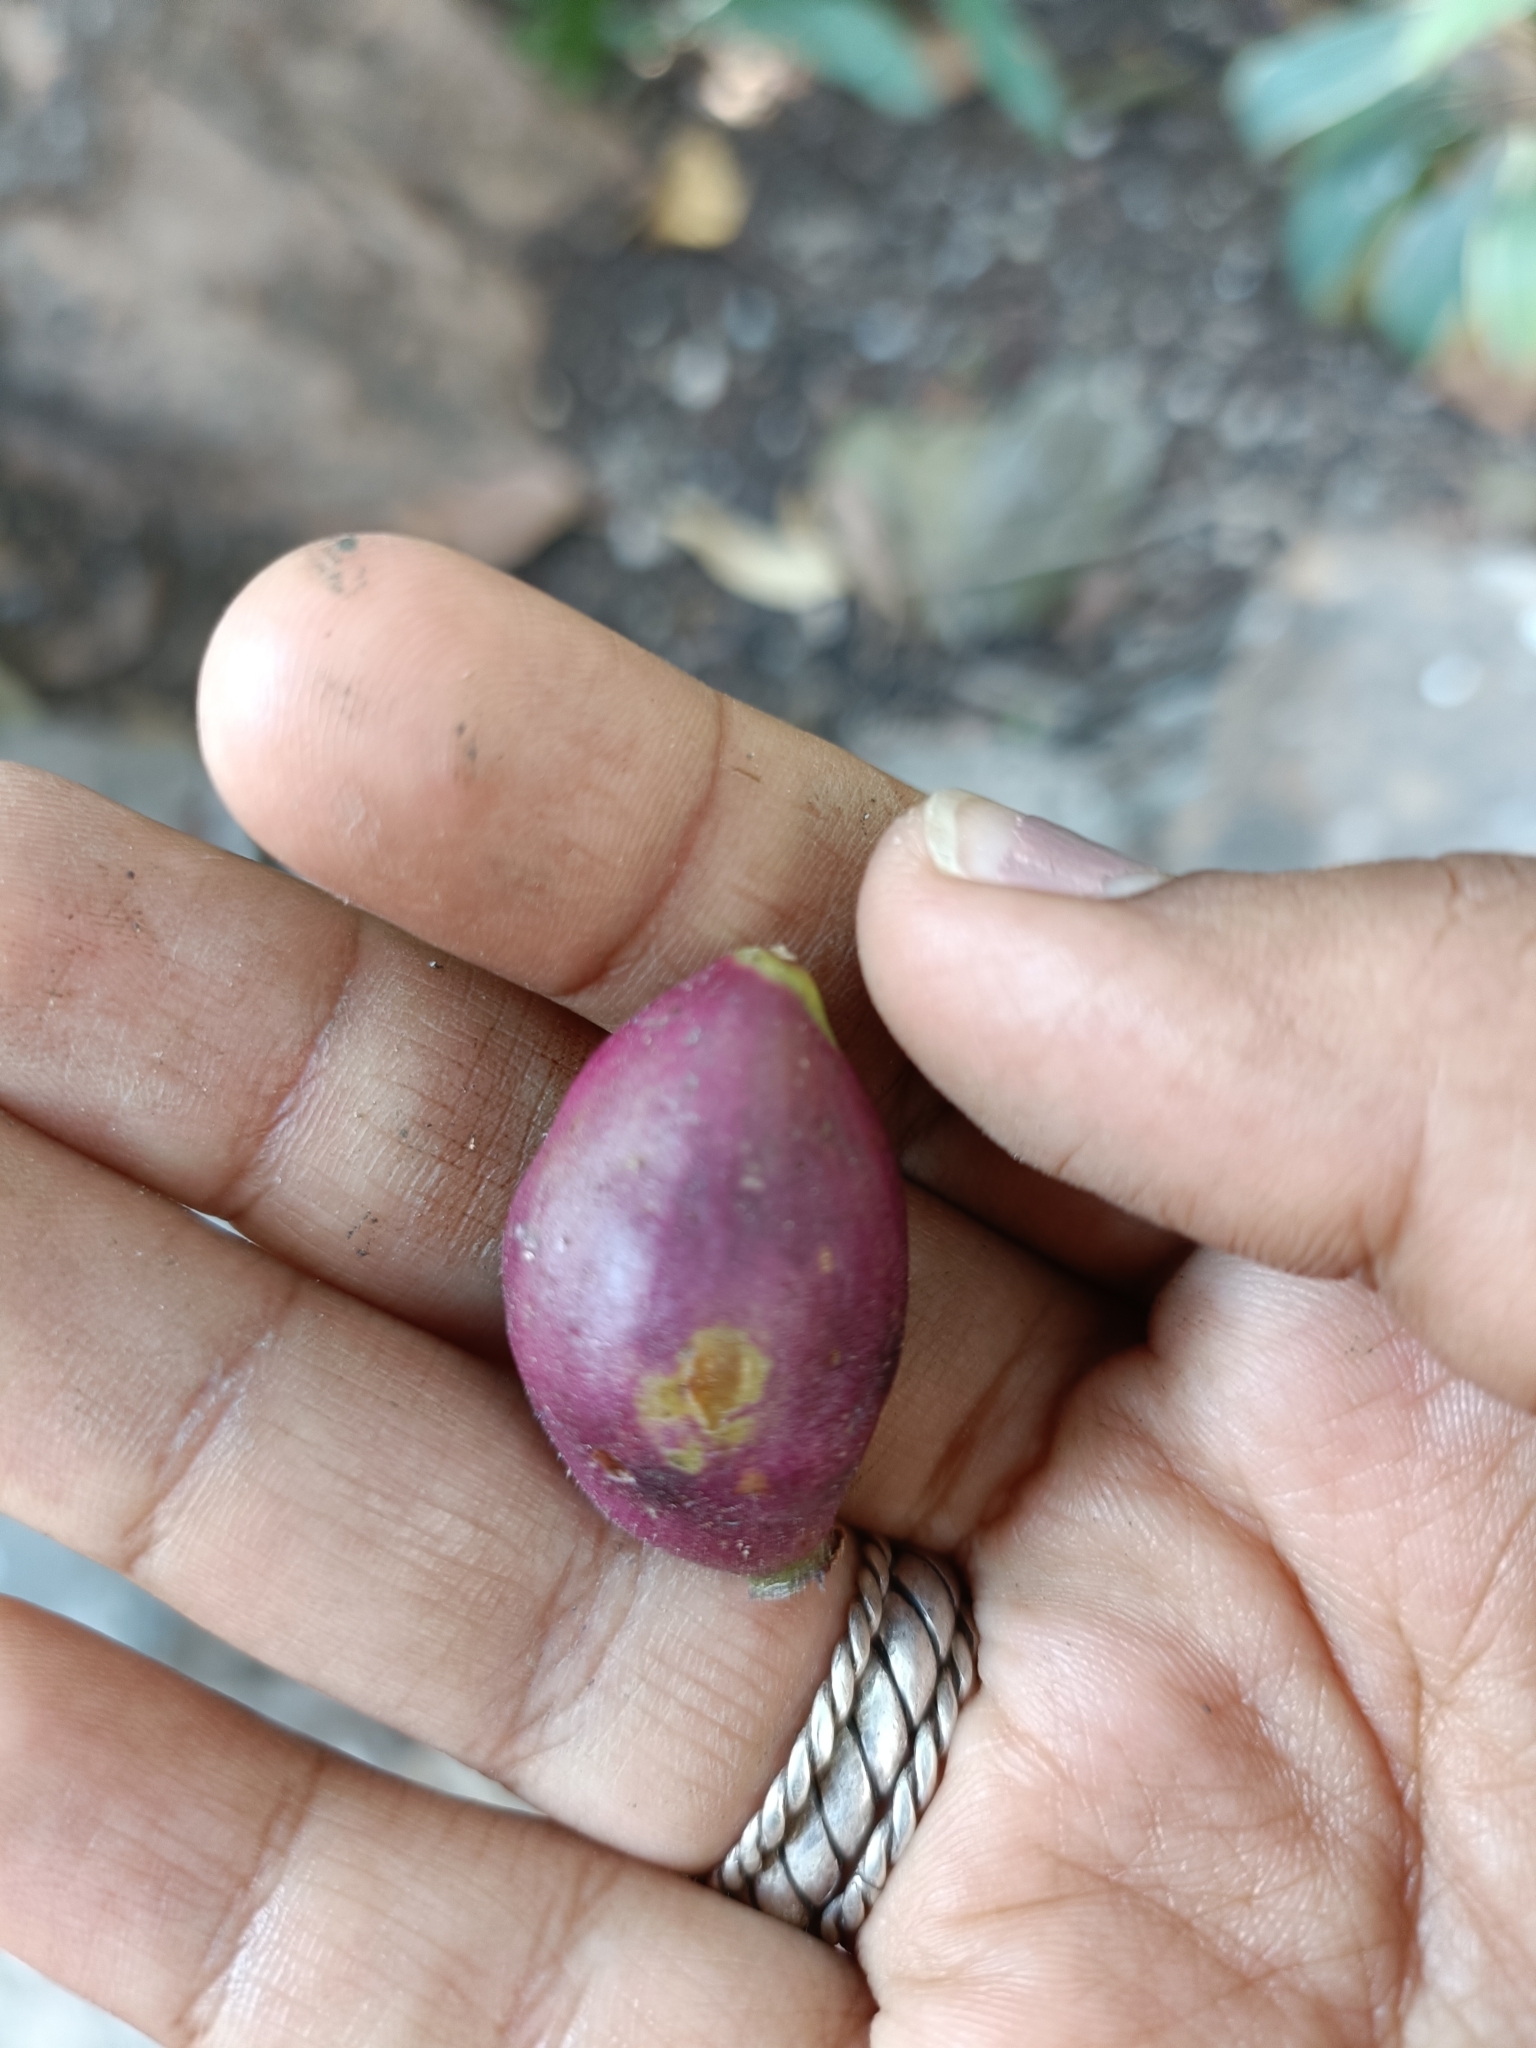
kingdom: Plantae
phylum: Tracheophyta
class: Magnoliopsida
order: Myrtales
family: Myrtaceae
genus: Syzygium
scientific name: Syzygium cumini
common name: Java plum
